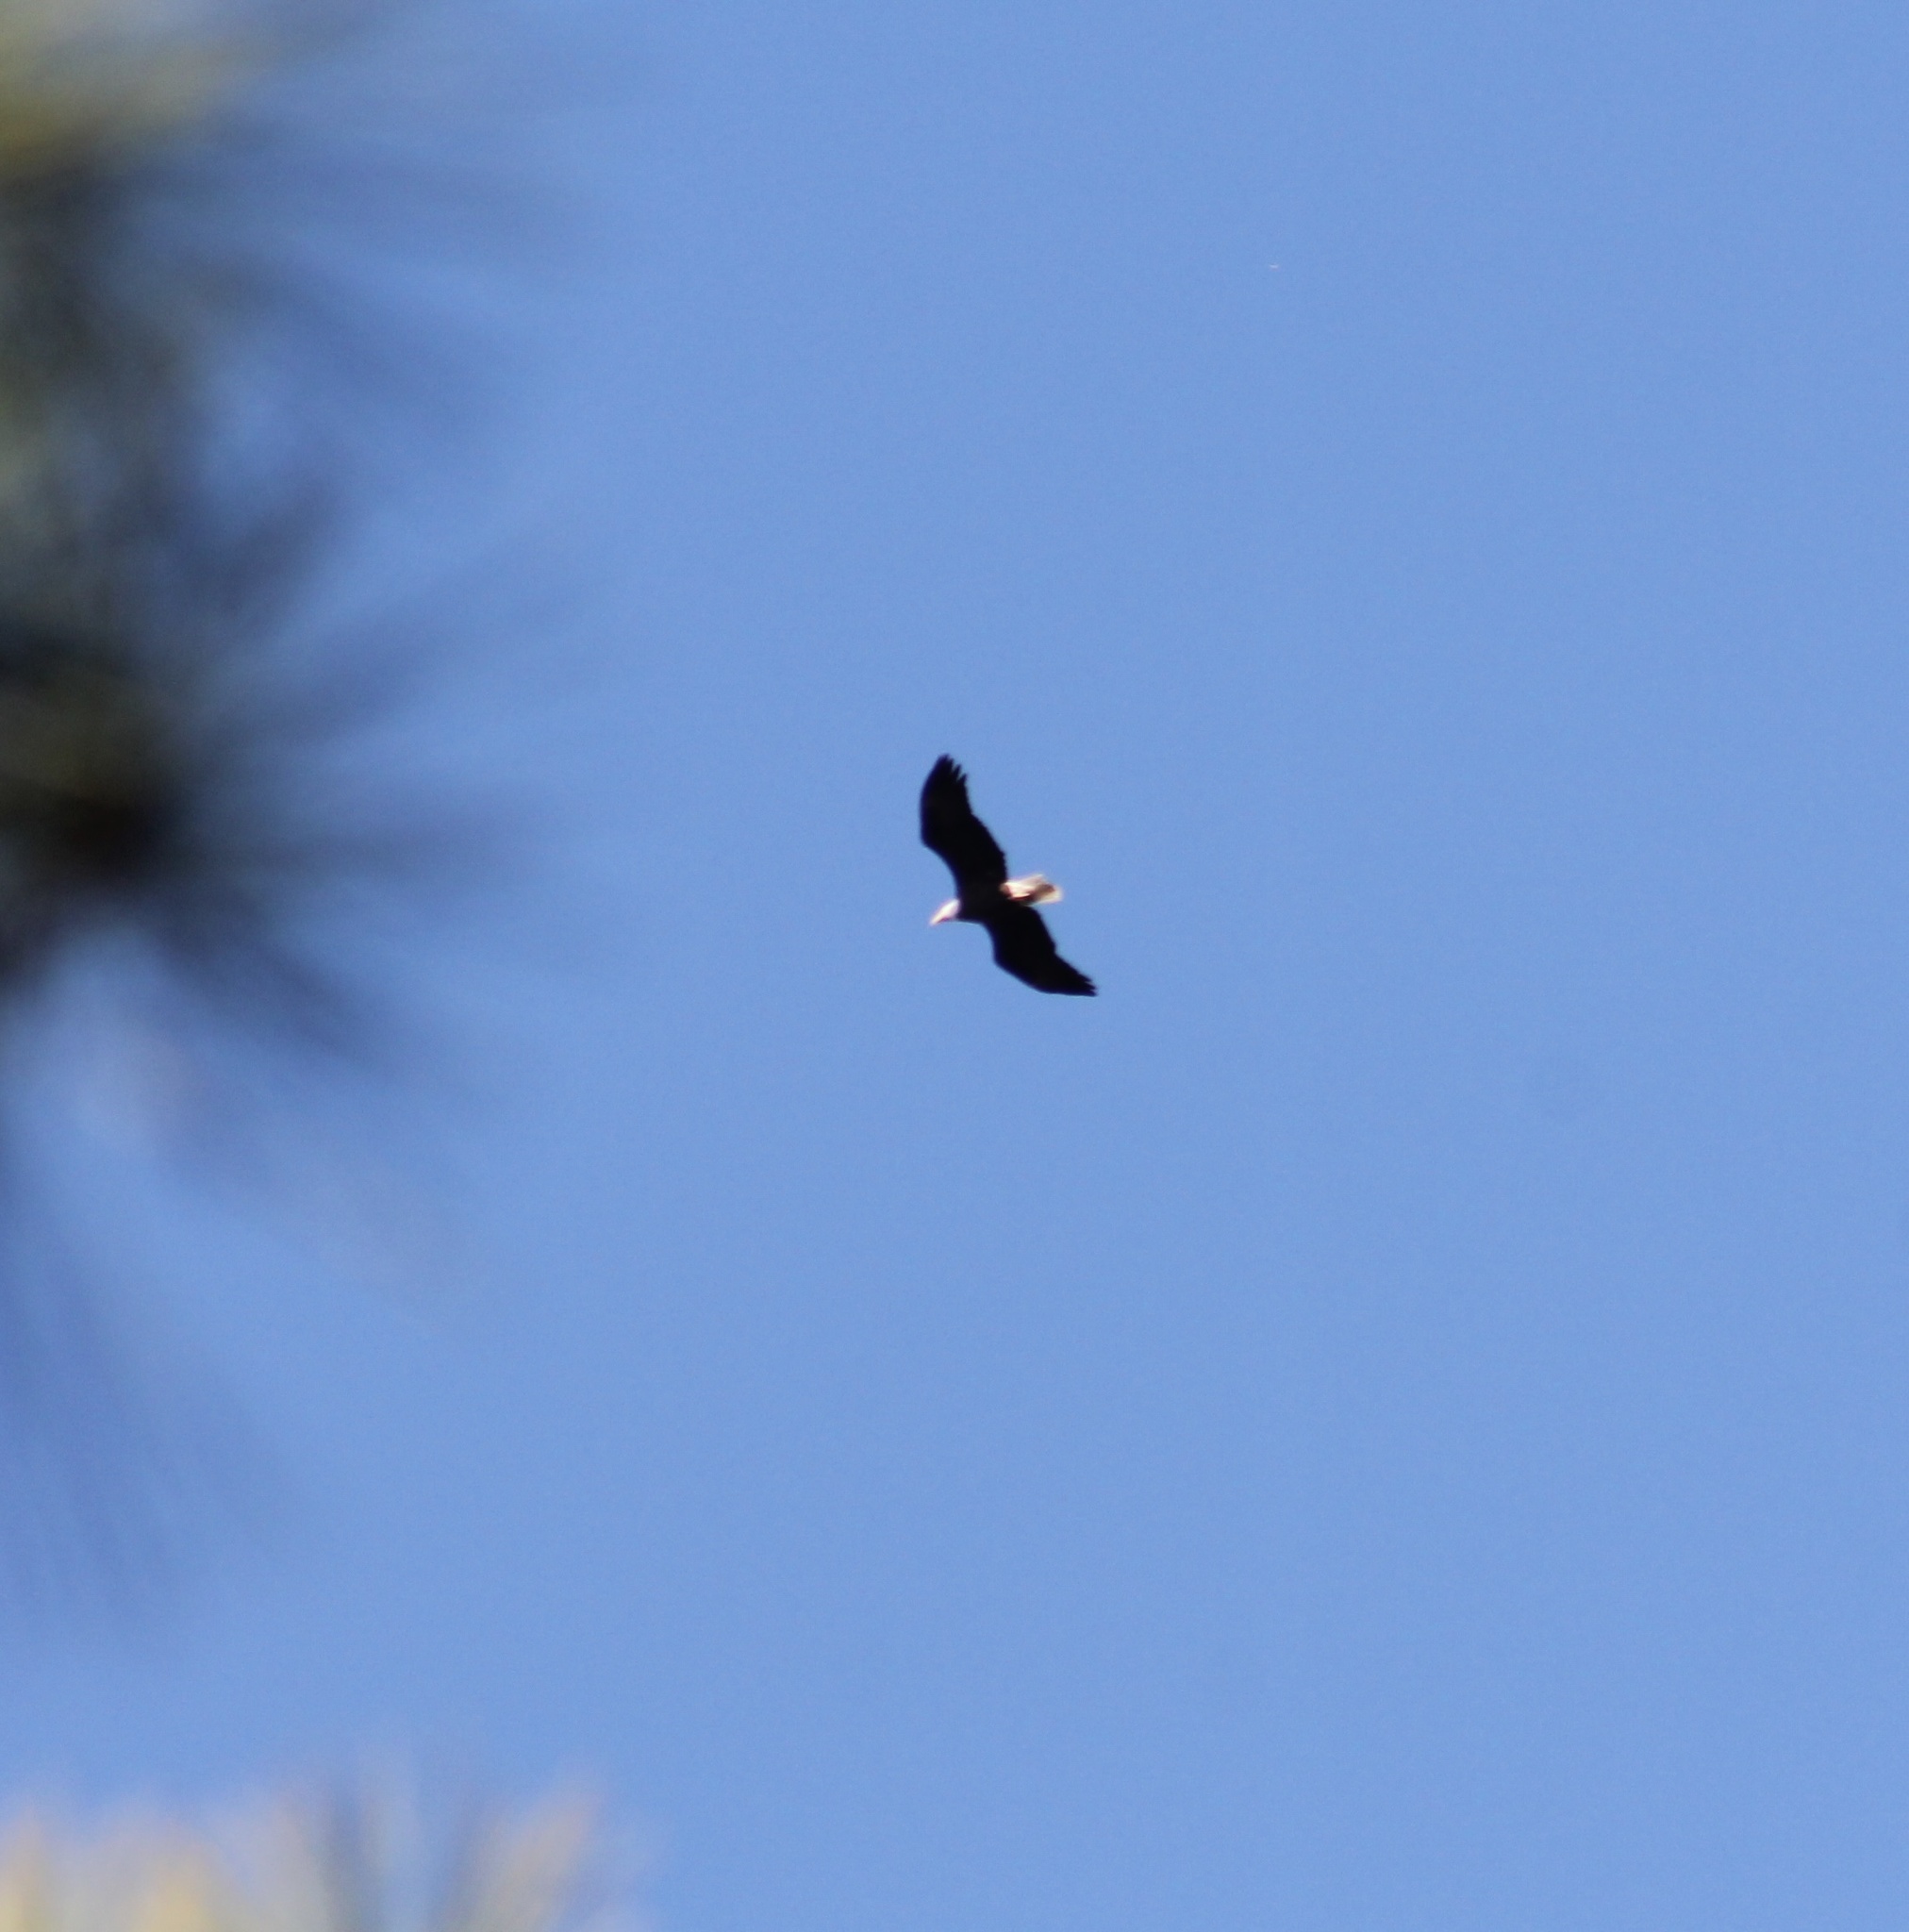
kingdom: Animalia
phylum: Chordata
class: Aves
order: Accipitriformes
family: Accipitridae
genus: Haliaeetus
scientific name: Haliaeetus leucocephalus
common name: Bald eagle
